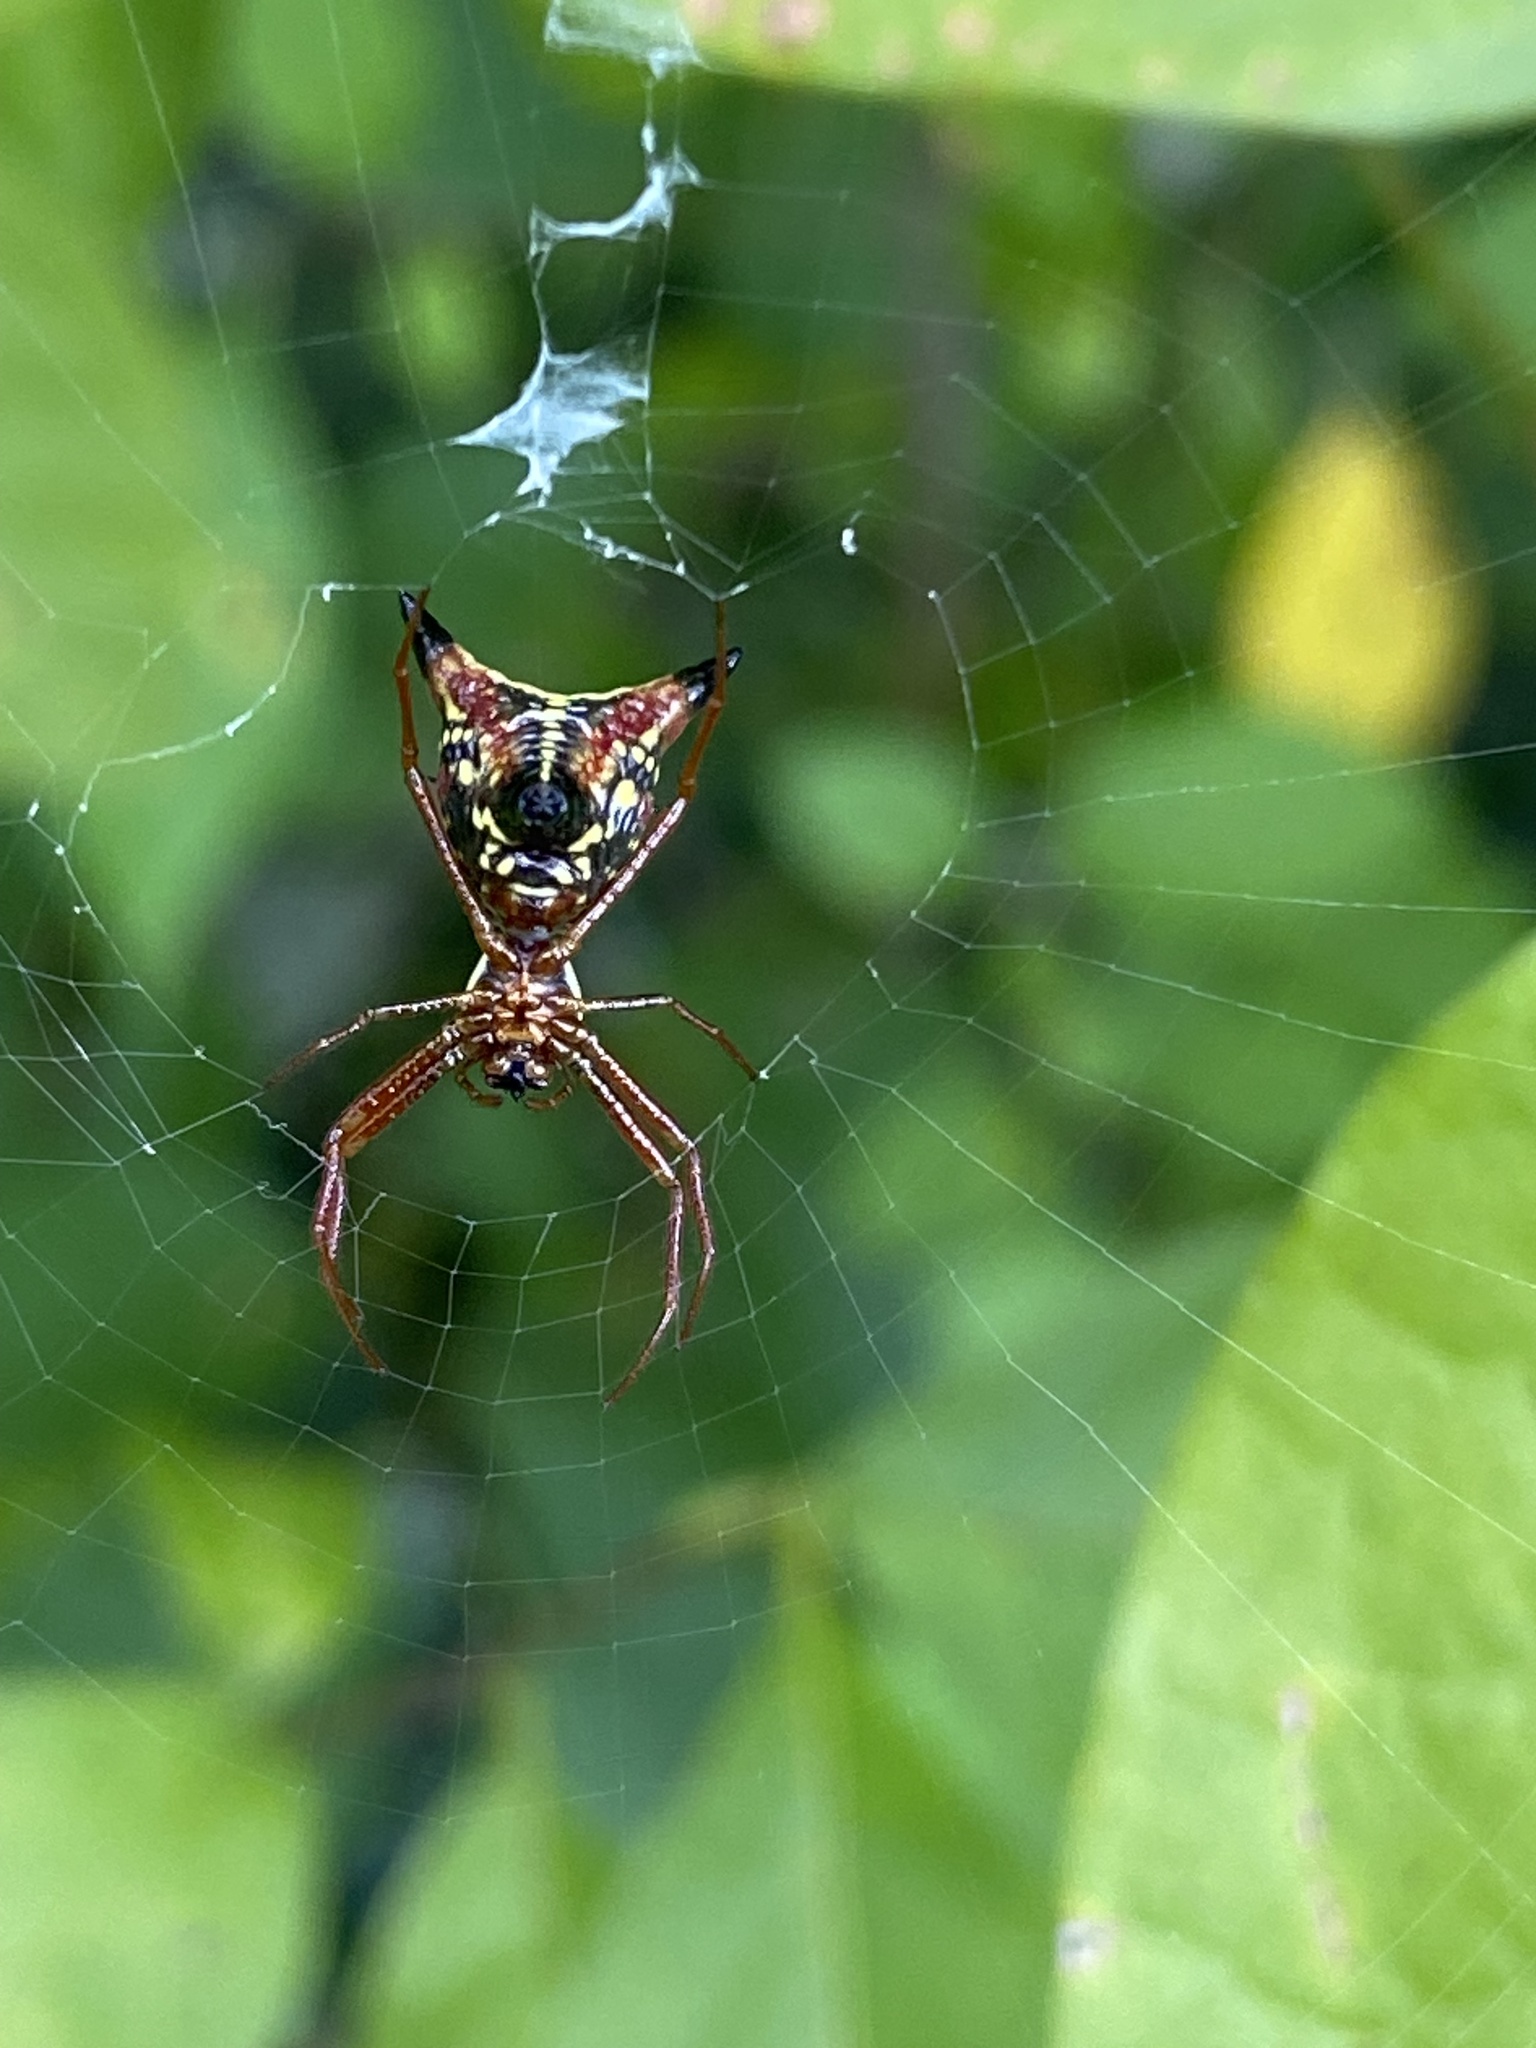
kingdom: Animalia
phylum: Arthropoda
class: Arachnida
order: Araneae
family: Araneidae
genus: Micrathena
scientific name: Micrathena sagittata
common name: Orb weavers
